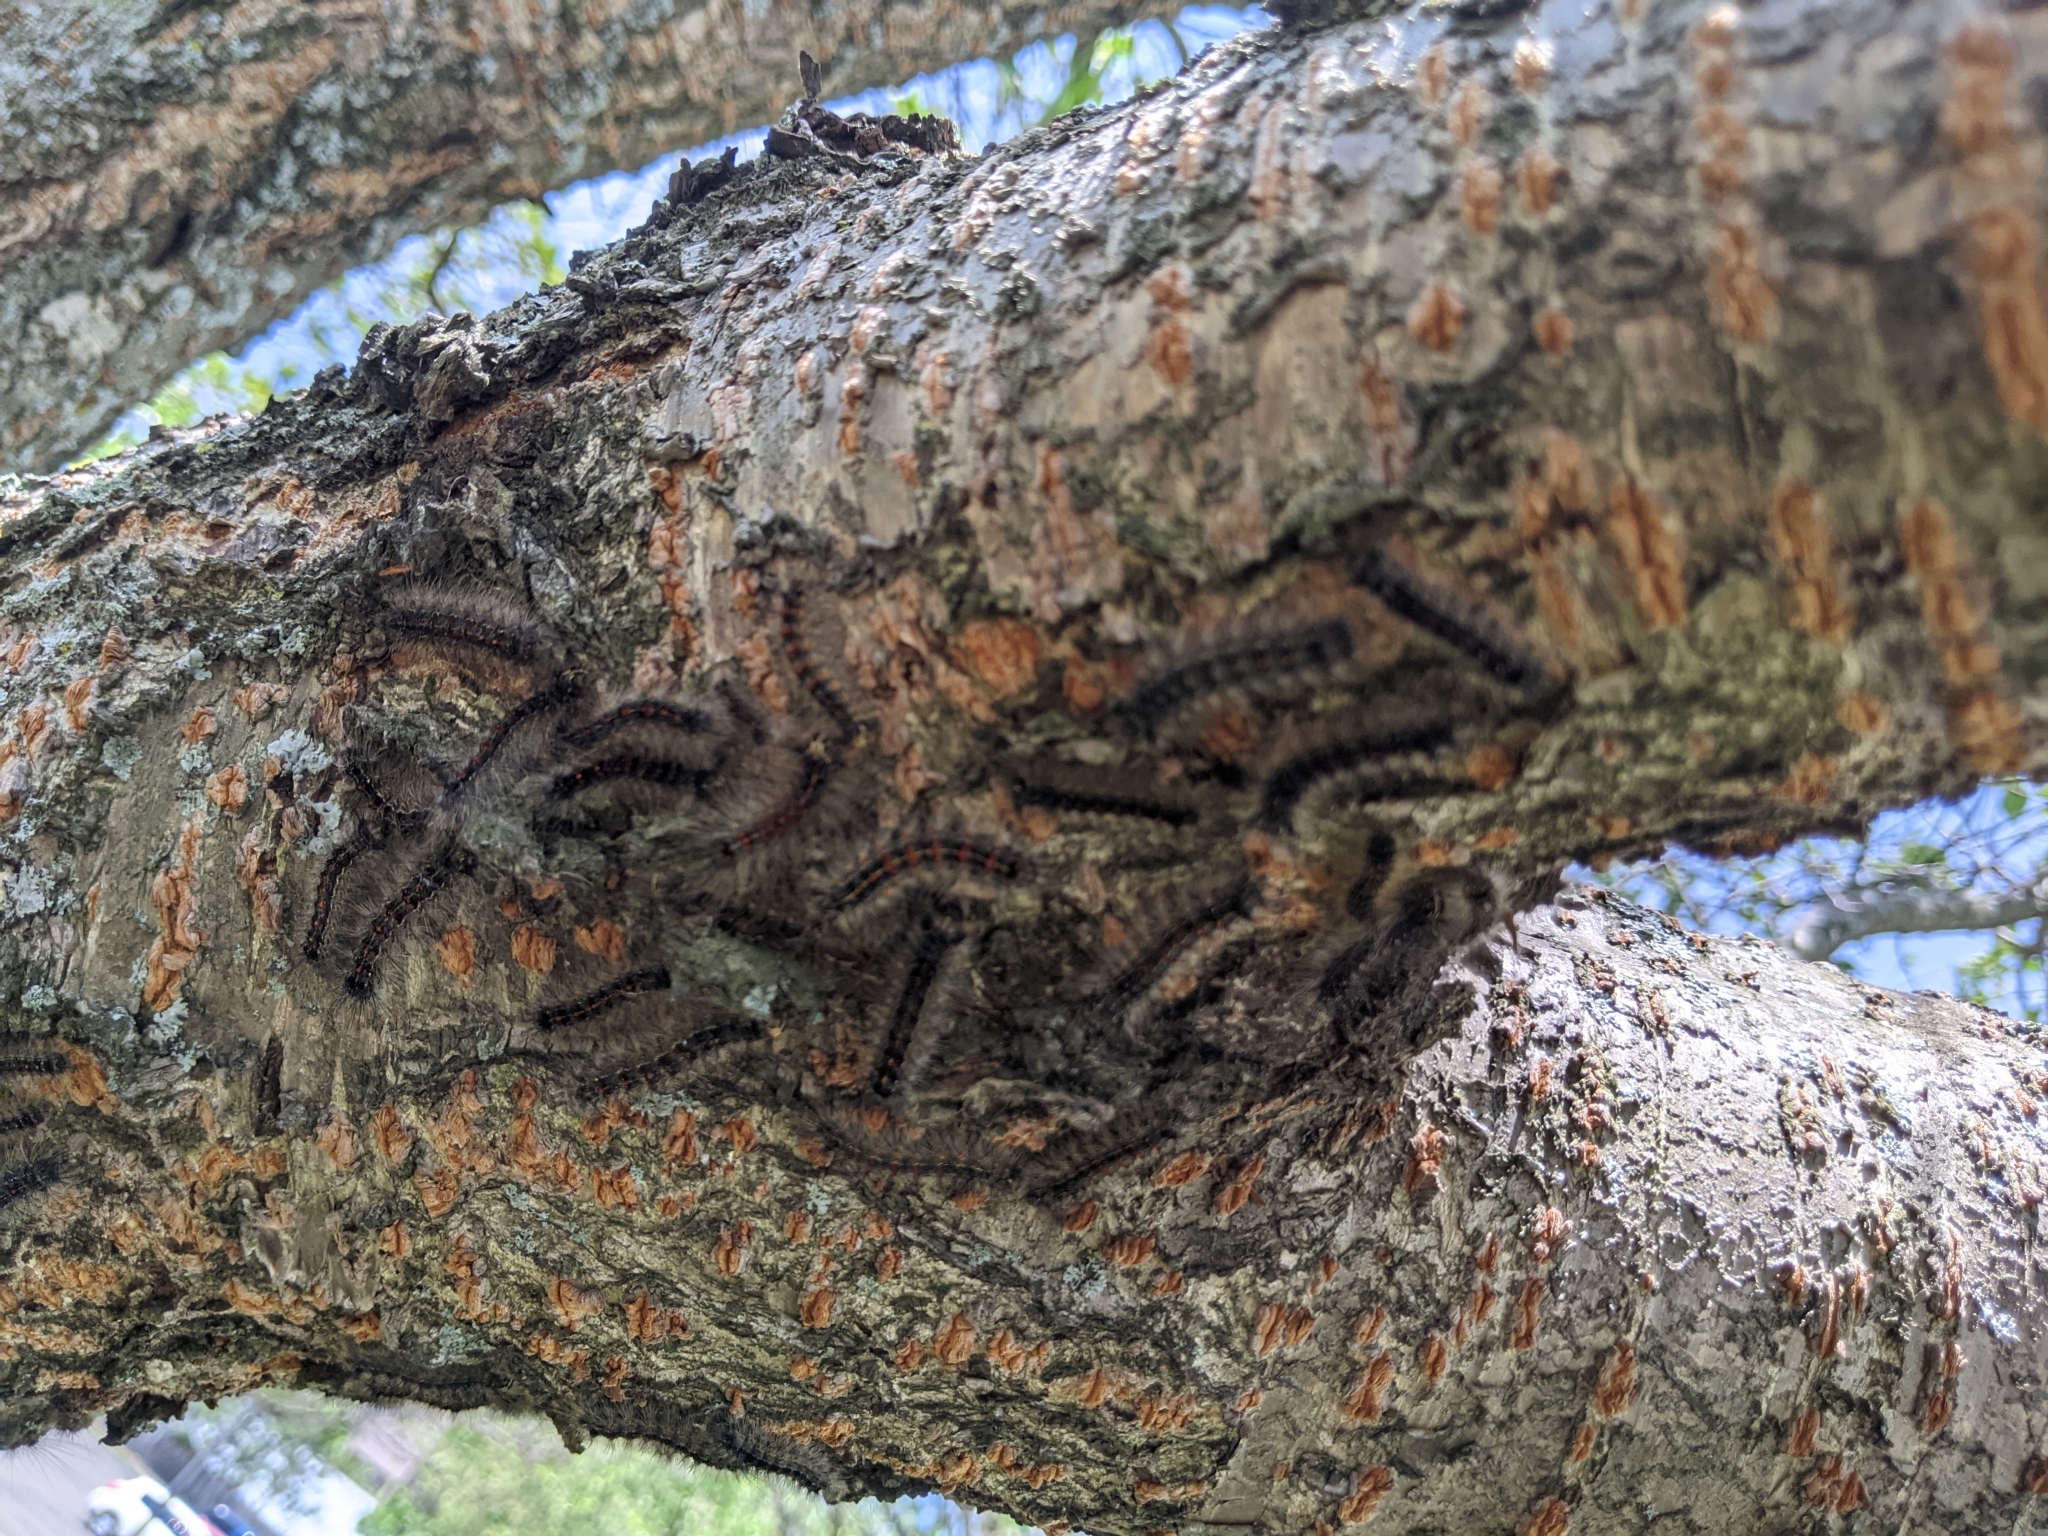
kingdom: Animalia
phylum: Arthropoda
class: Insecta
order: Lepidoptera
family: Erebidae
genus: Lymantria
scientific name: Lymantria dispar
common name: Gypsy moth
